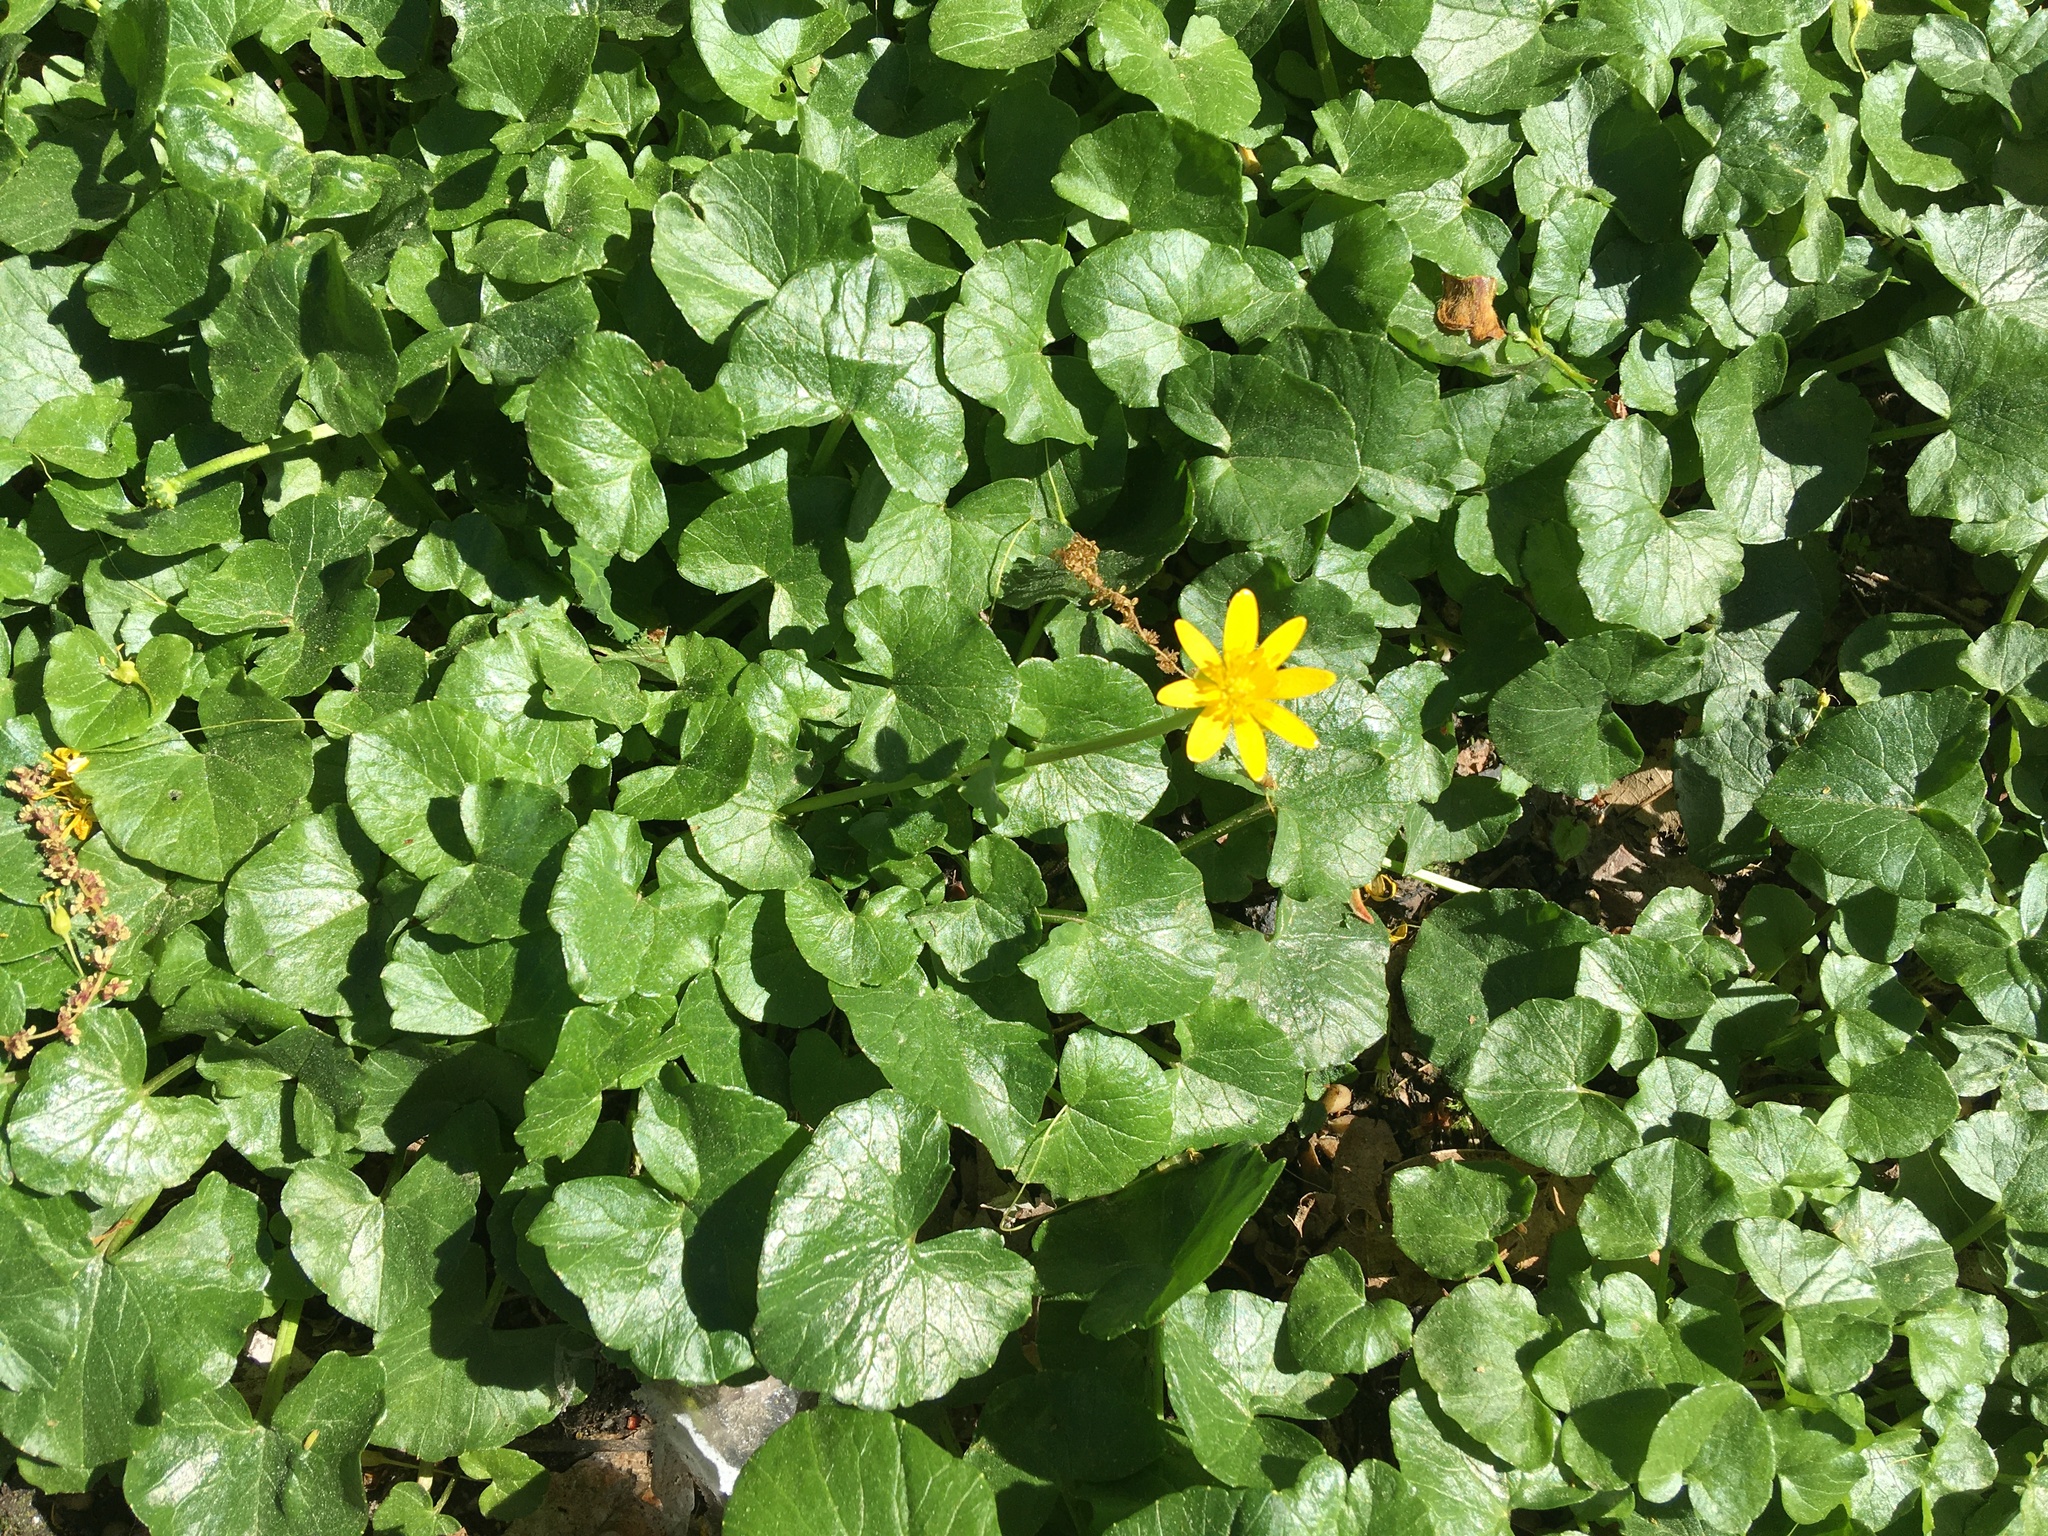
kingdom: Plantae
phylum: Tracheophyta
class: Magnoliopsida
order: Ranunculales
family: Ranunculaceae
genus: Ficaria
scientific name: Ficaria verna
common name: Lesser celandine
